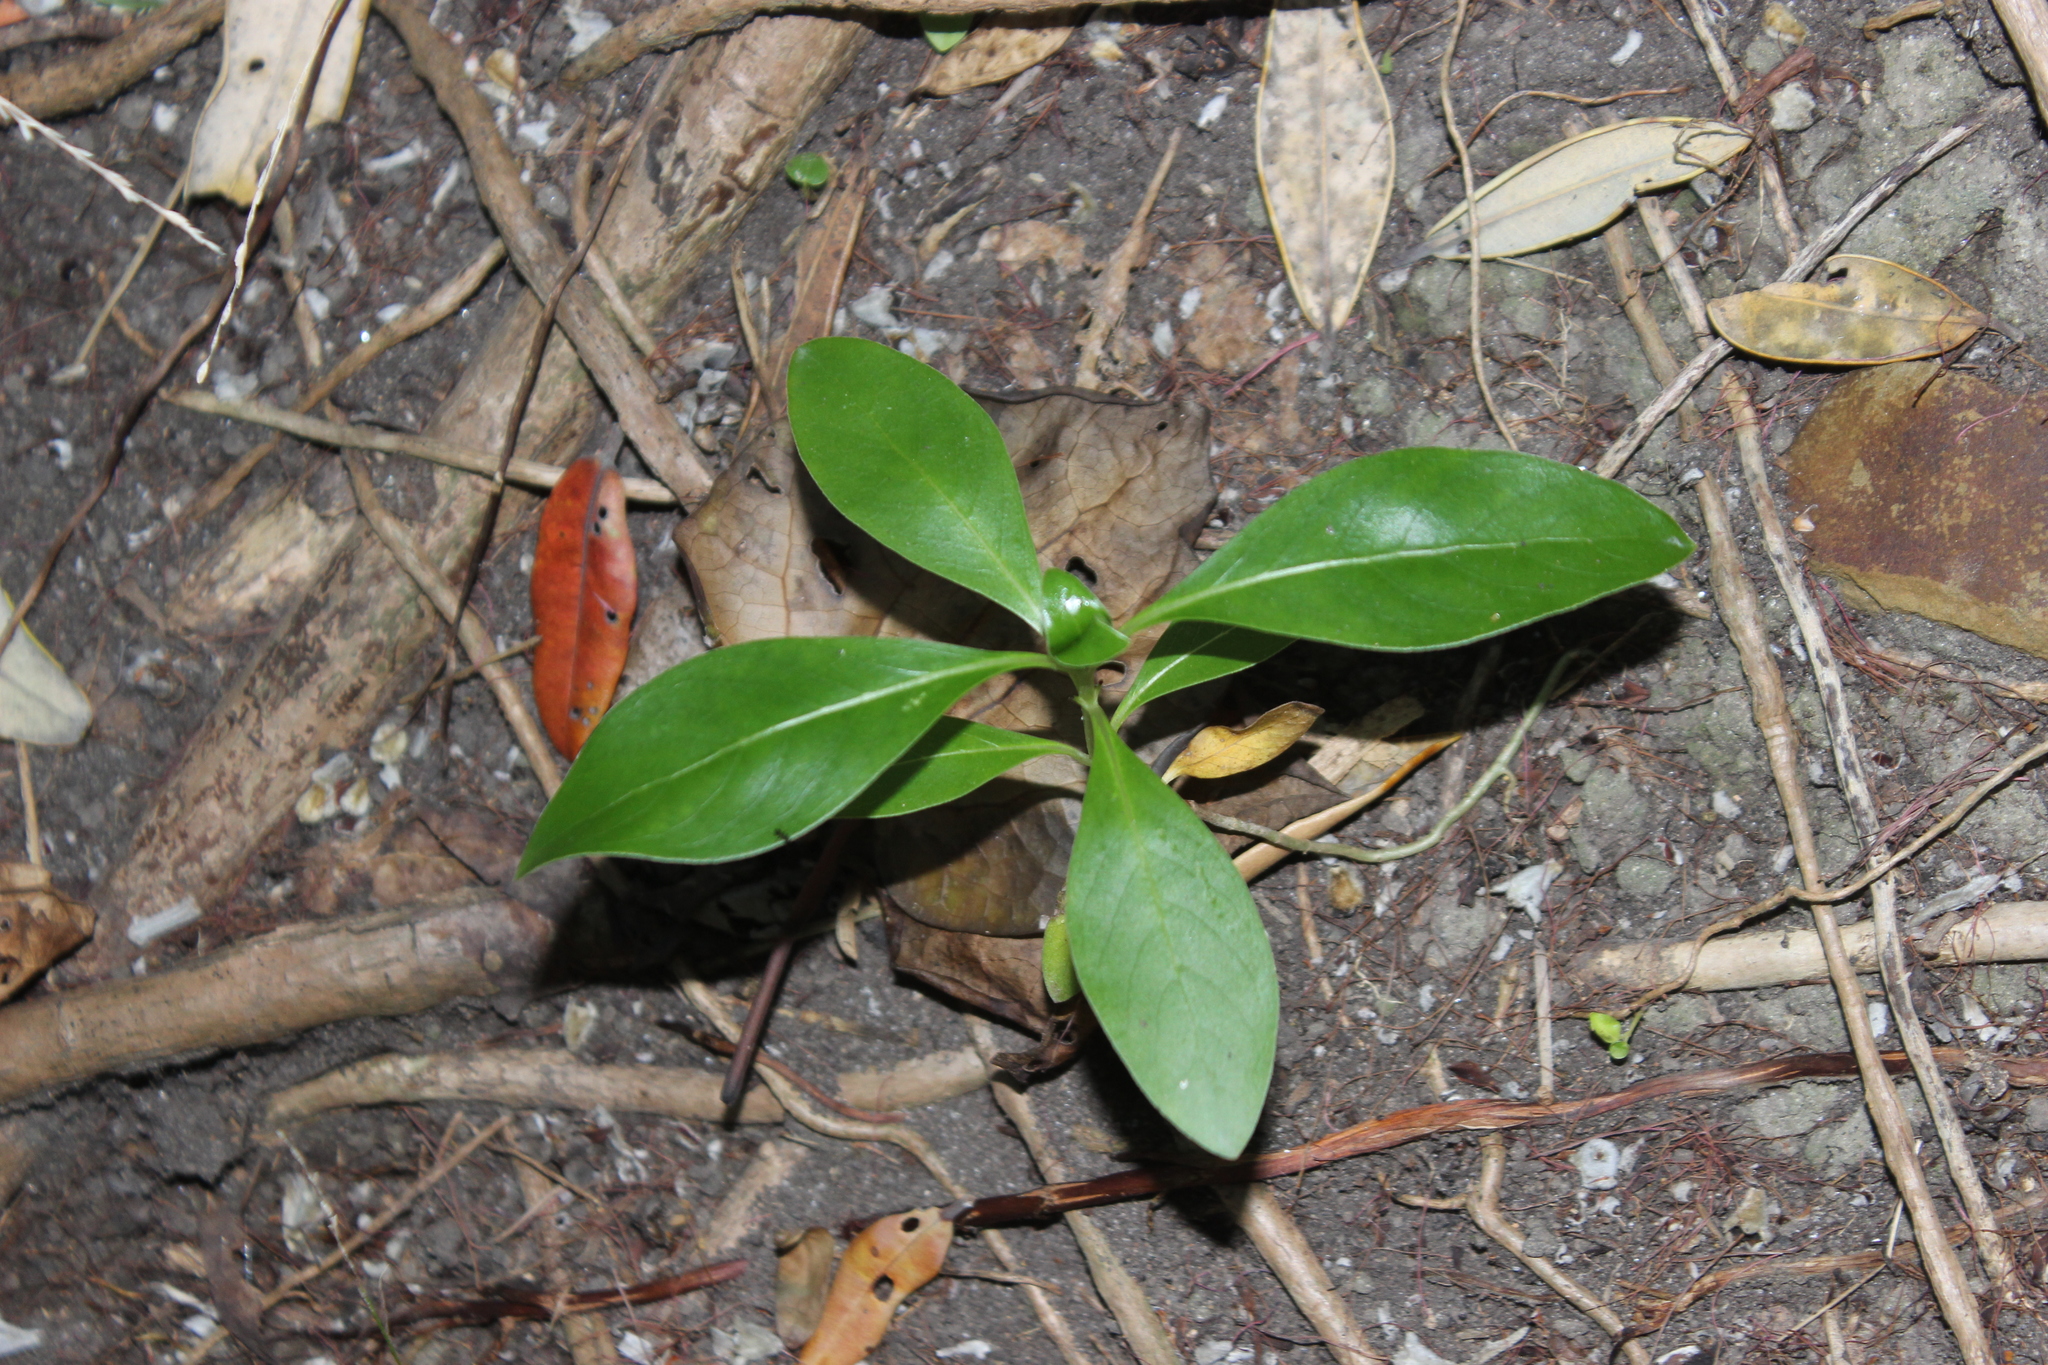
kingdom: Plantae
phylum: Tracheophyta
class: Magnoliopsida
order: Gentianales
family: Rubiaceae
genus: Coprosma
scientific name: Coprosma robusta
